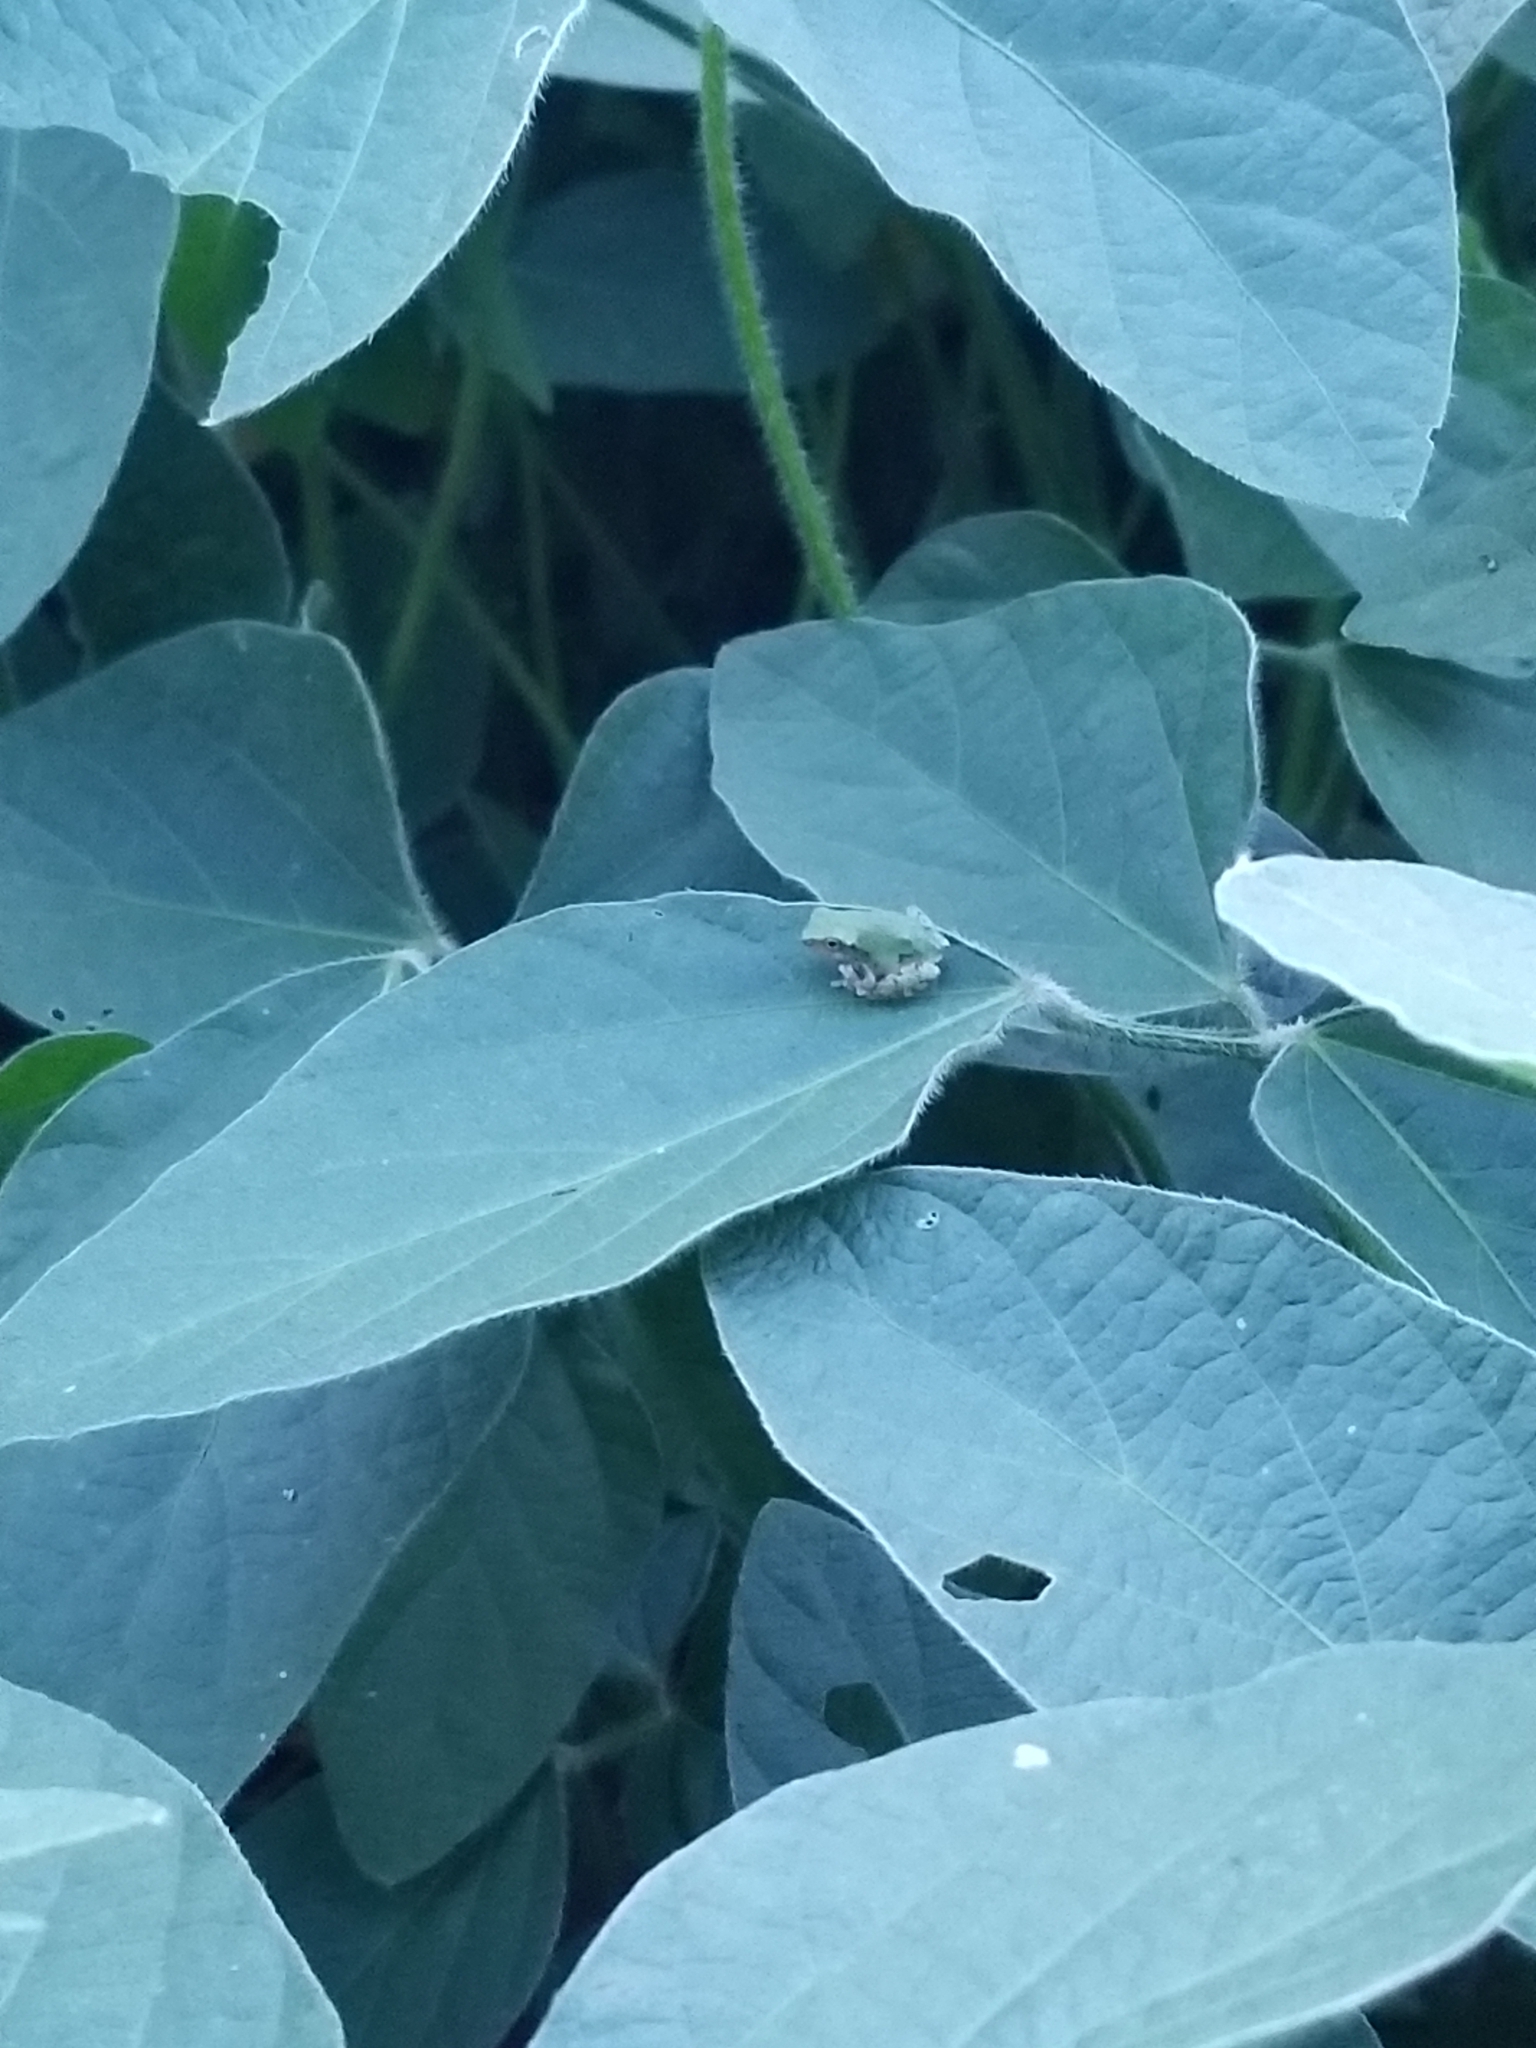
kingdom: Animalia
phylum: Chordata
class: Amphibia
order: Anura
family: Hylidae
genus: Dryophytes
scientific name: Dryophytes versicolor
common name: Gray treefrog
